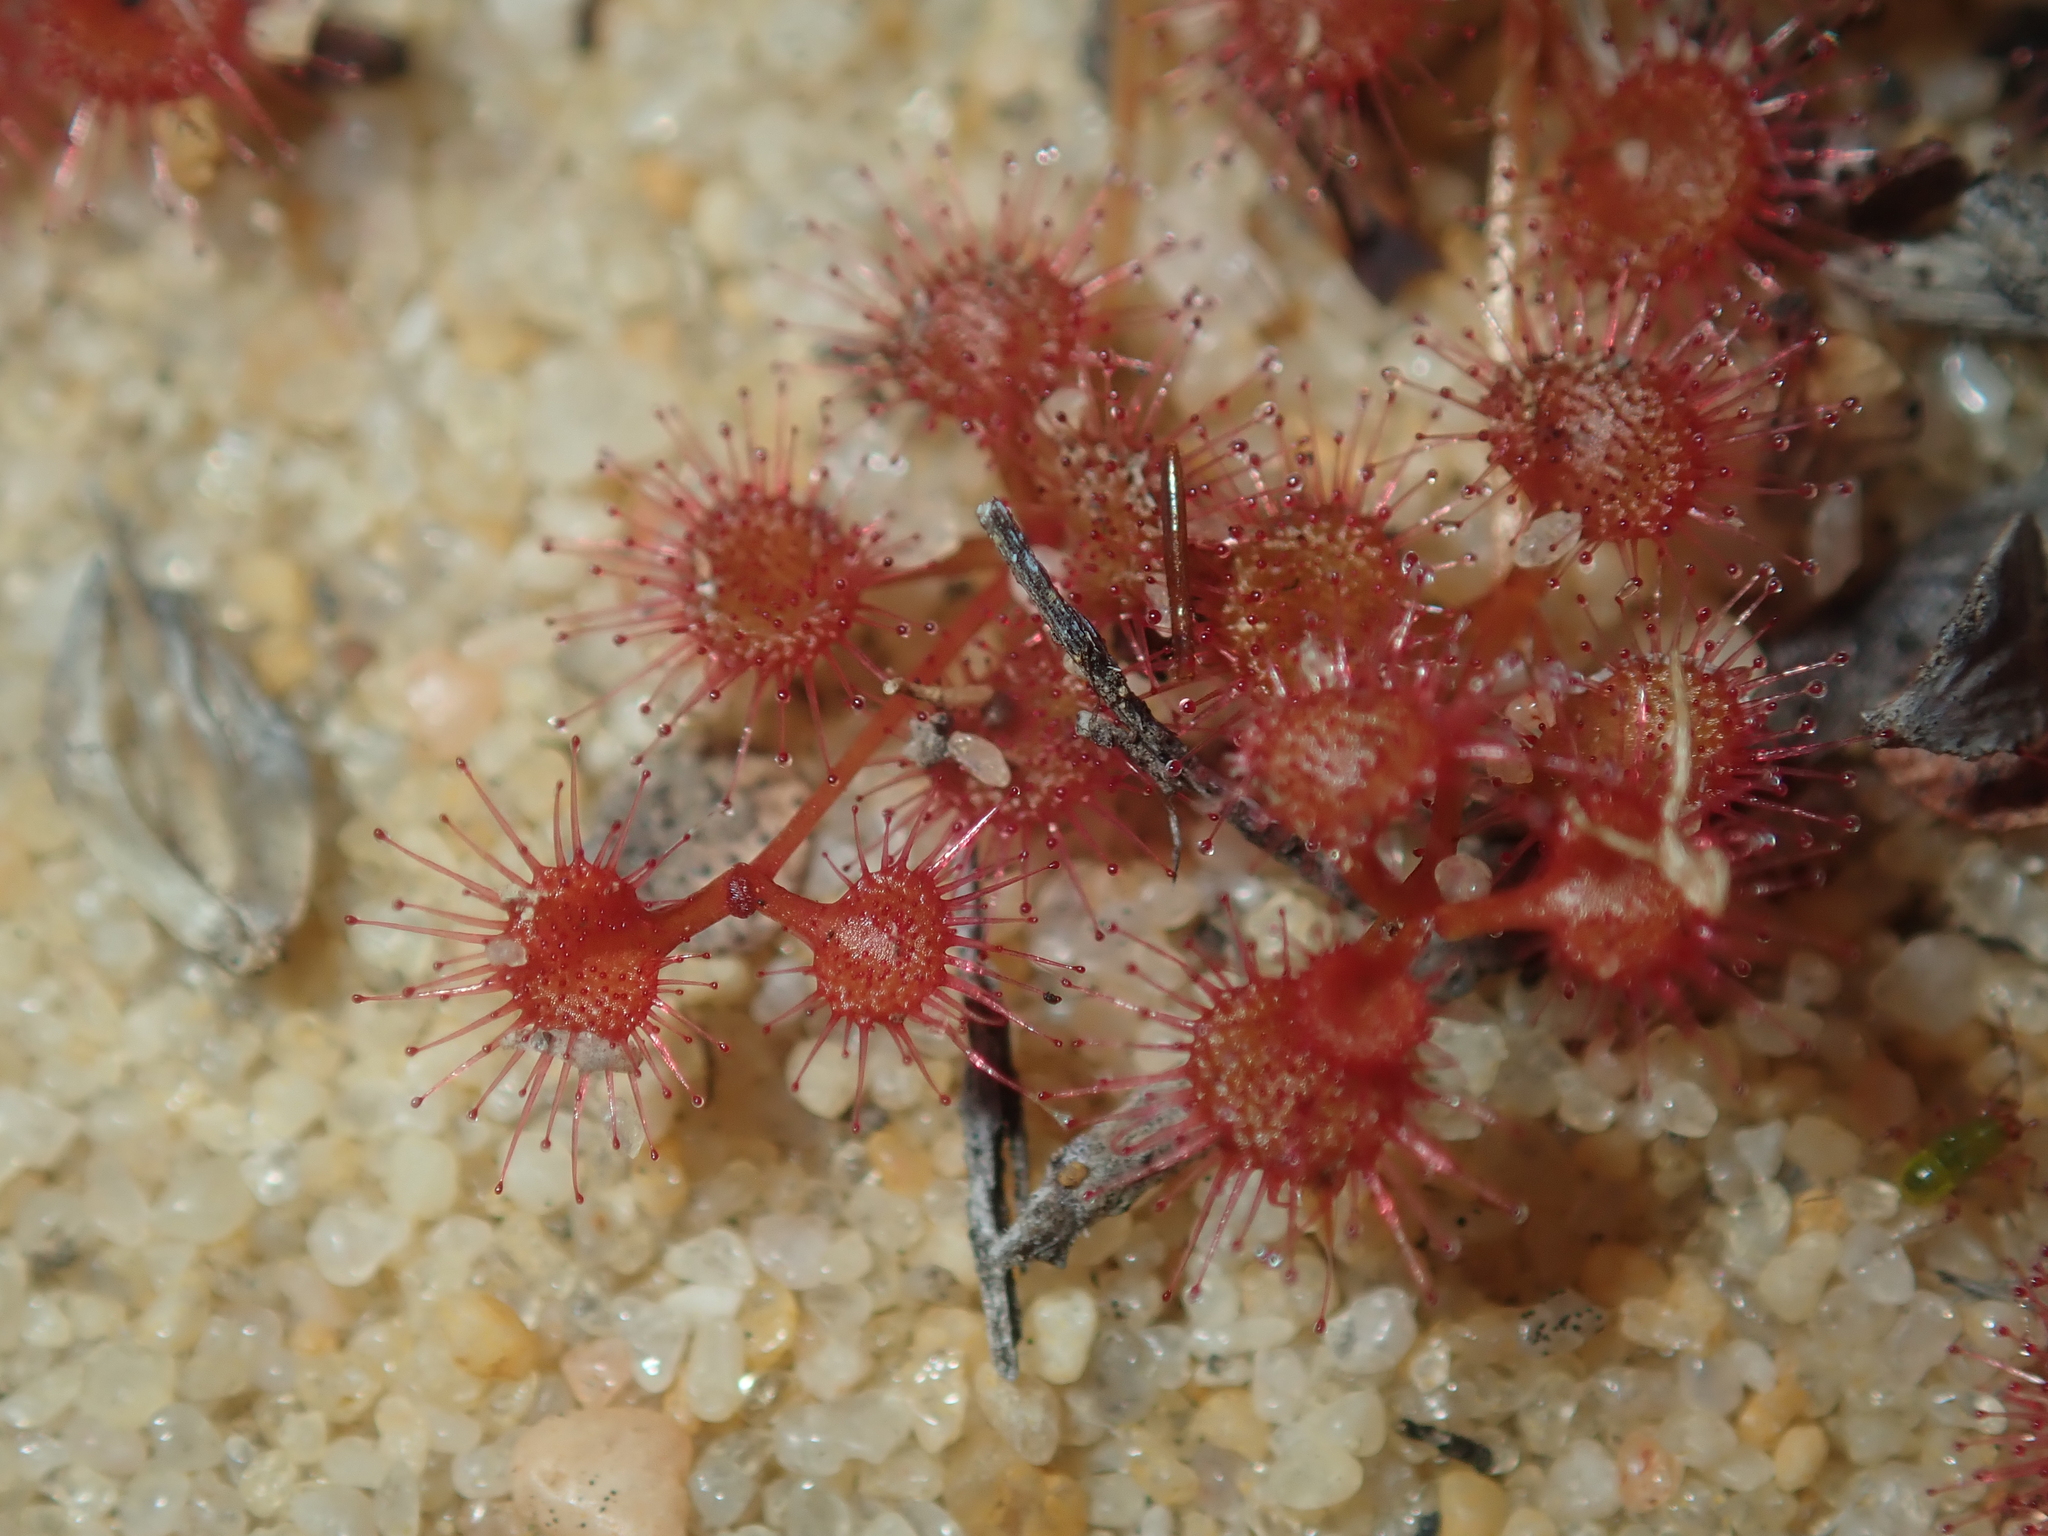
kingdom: Plantae
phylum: Tracheophyta
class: Magnoliopsida
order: Caryophyllales
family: Droseraceae
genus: Drosera
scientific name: Drosera prostrata
